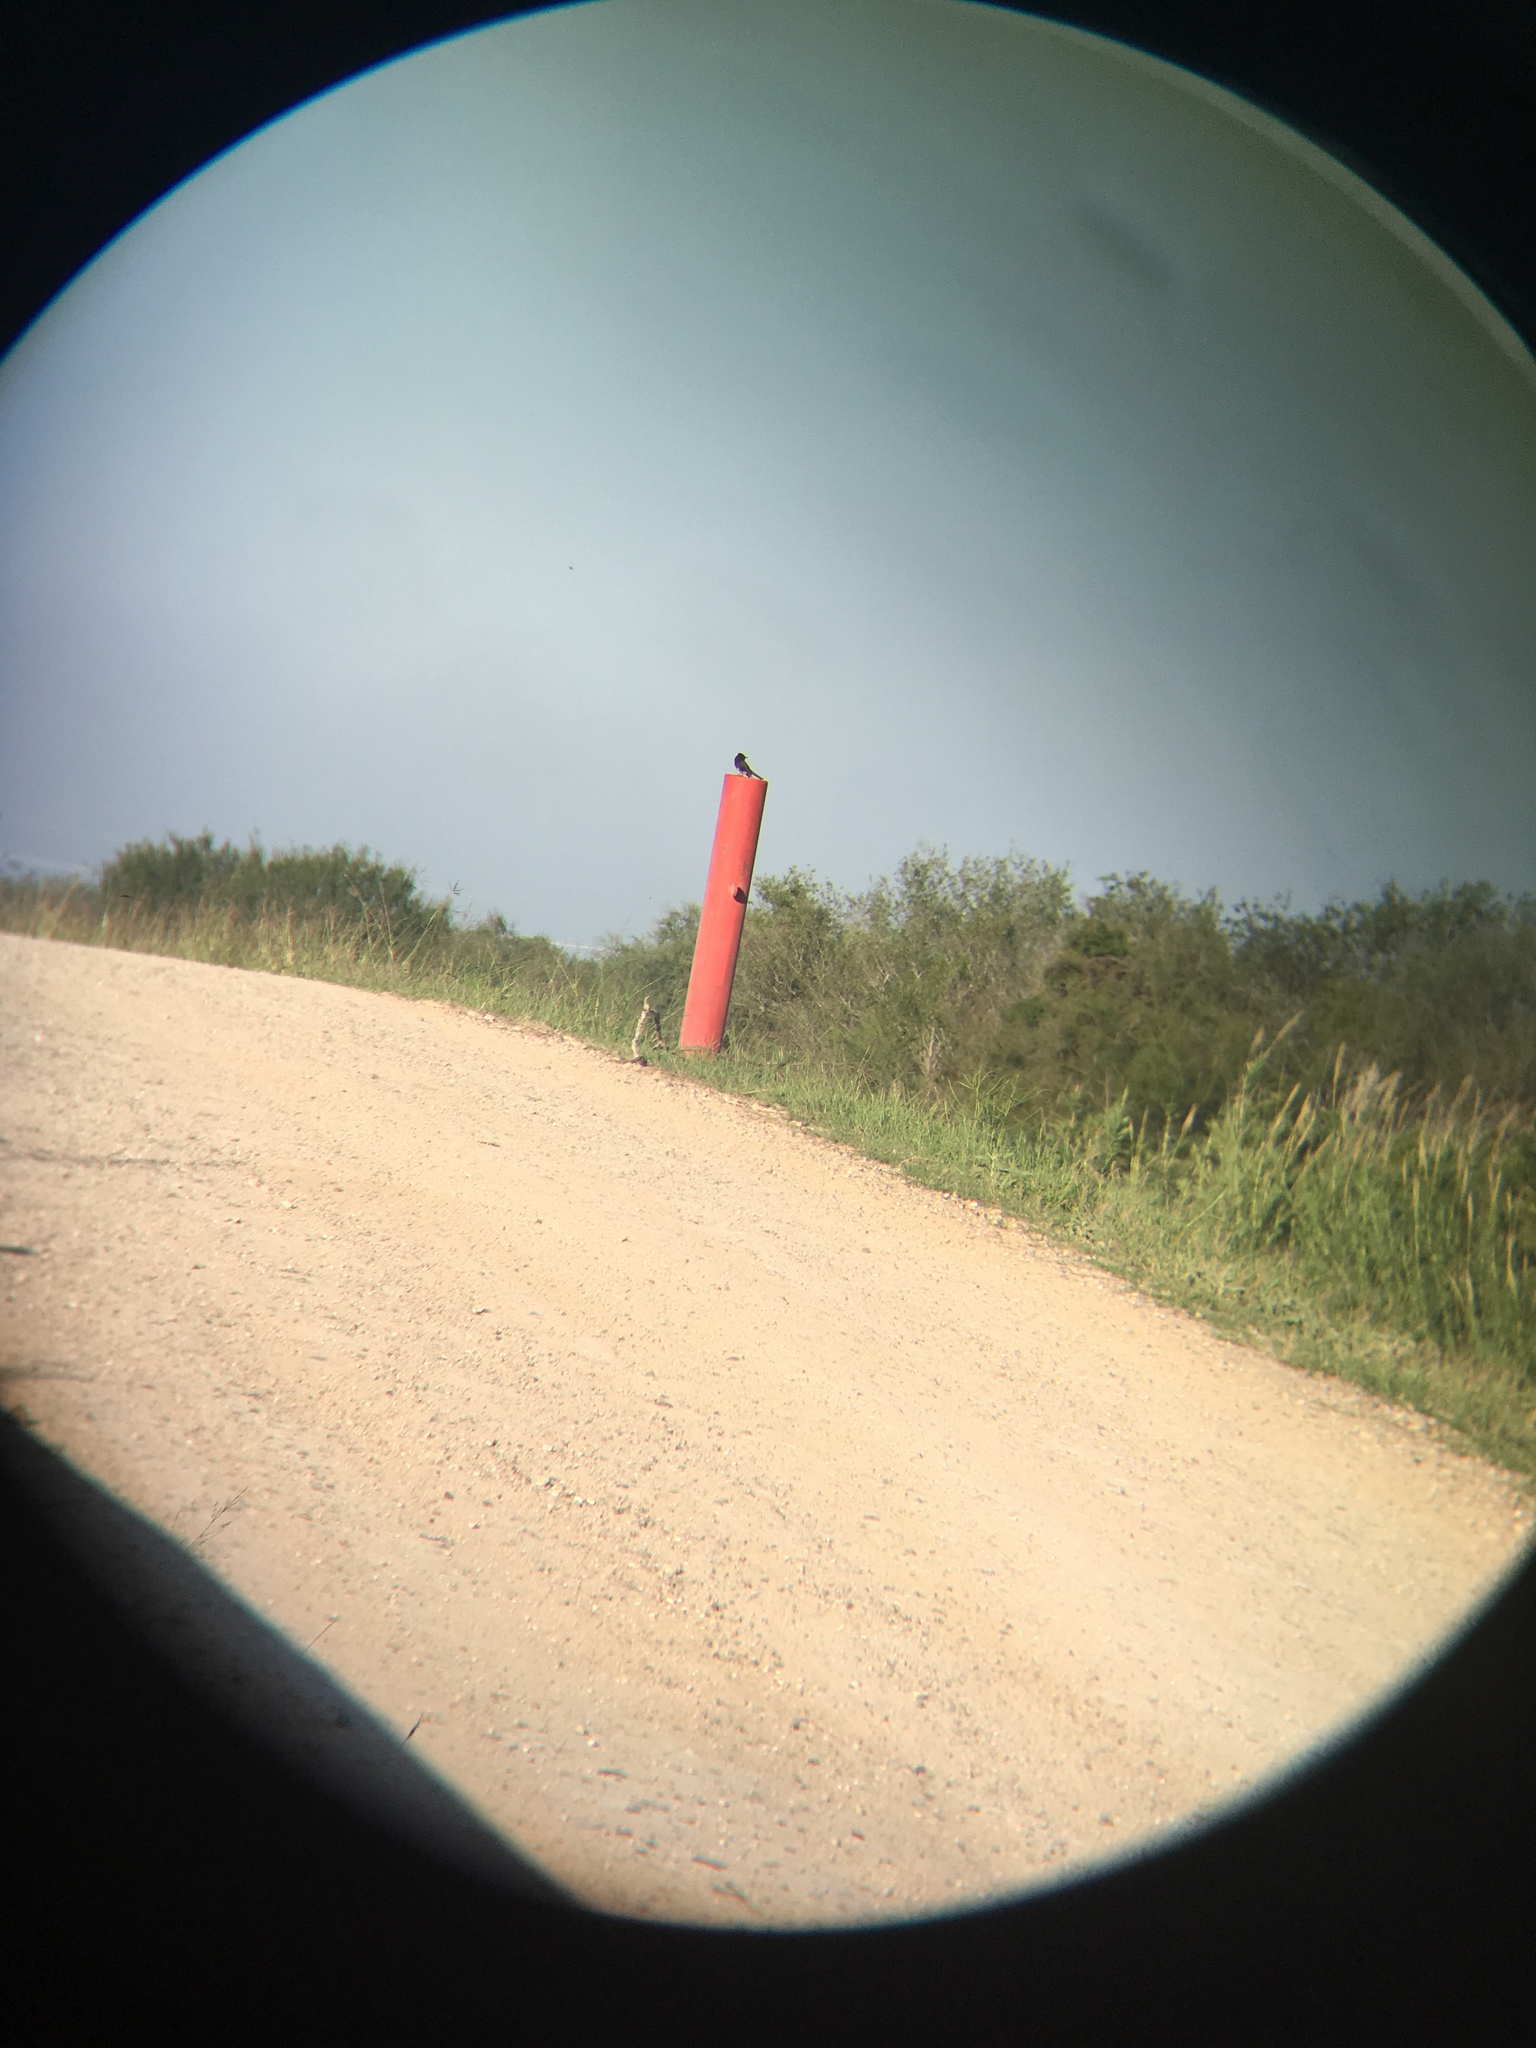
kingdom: Animalia
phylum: Chordata
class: Aves
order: Passeriformes
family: Tyrannidae
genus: Sayornis
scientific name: Sayornis nigricans
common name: Black phoebe
